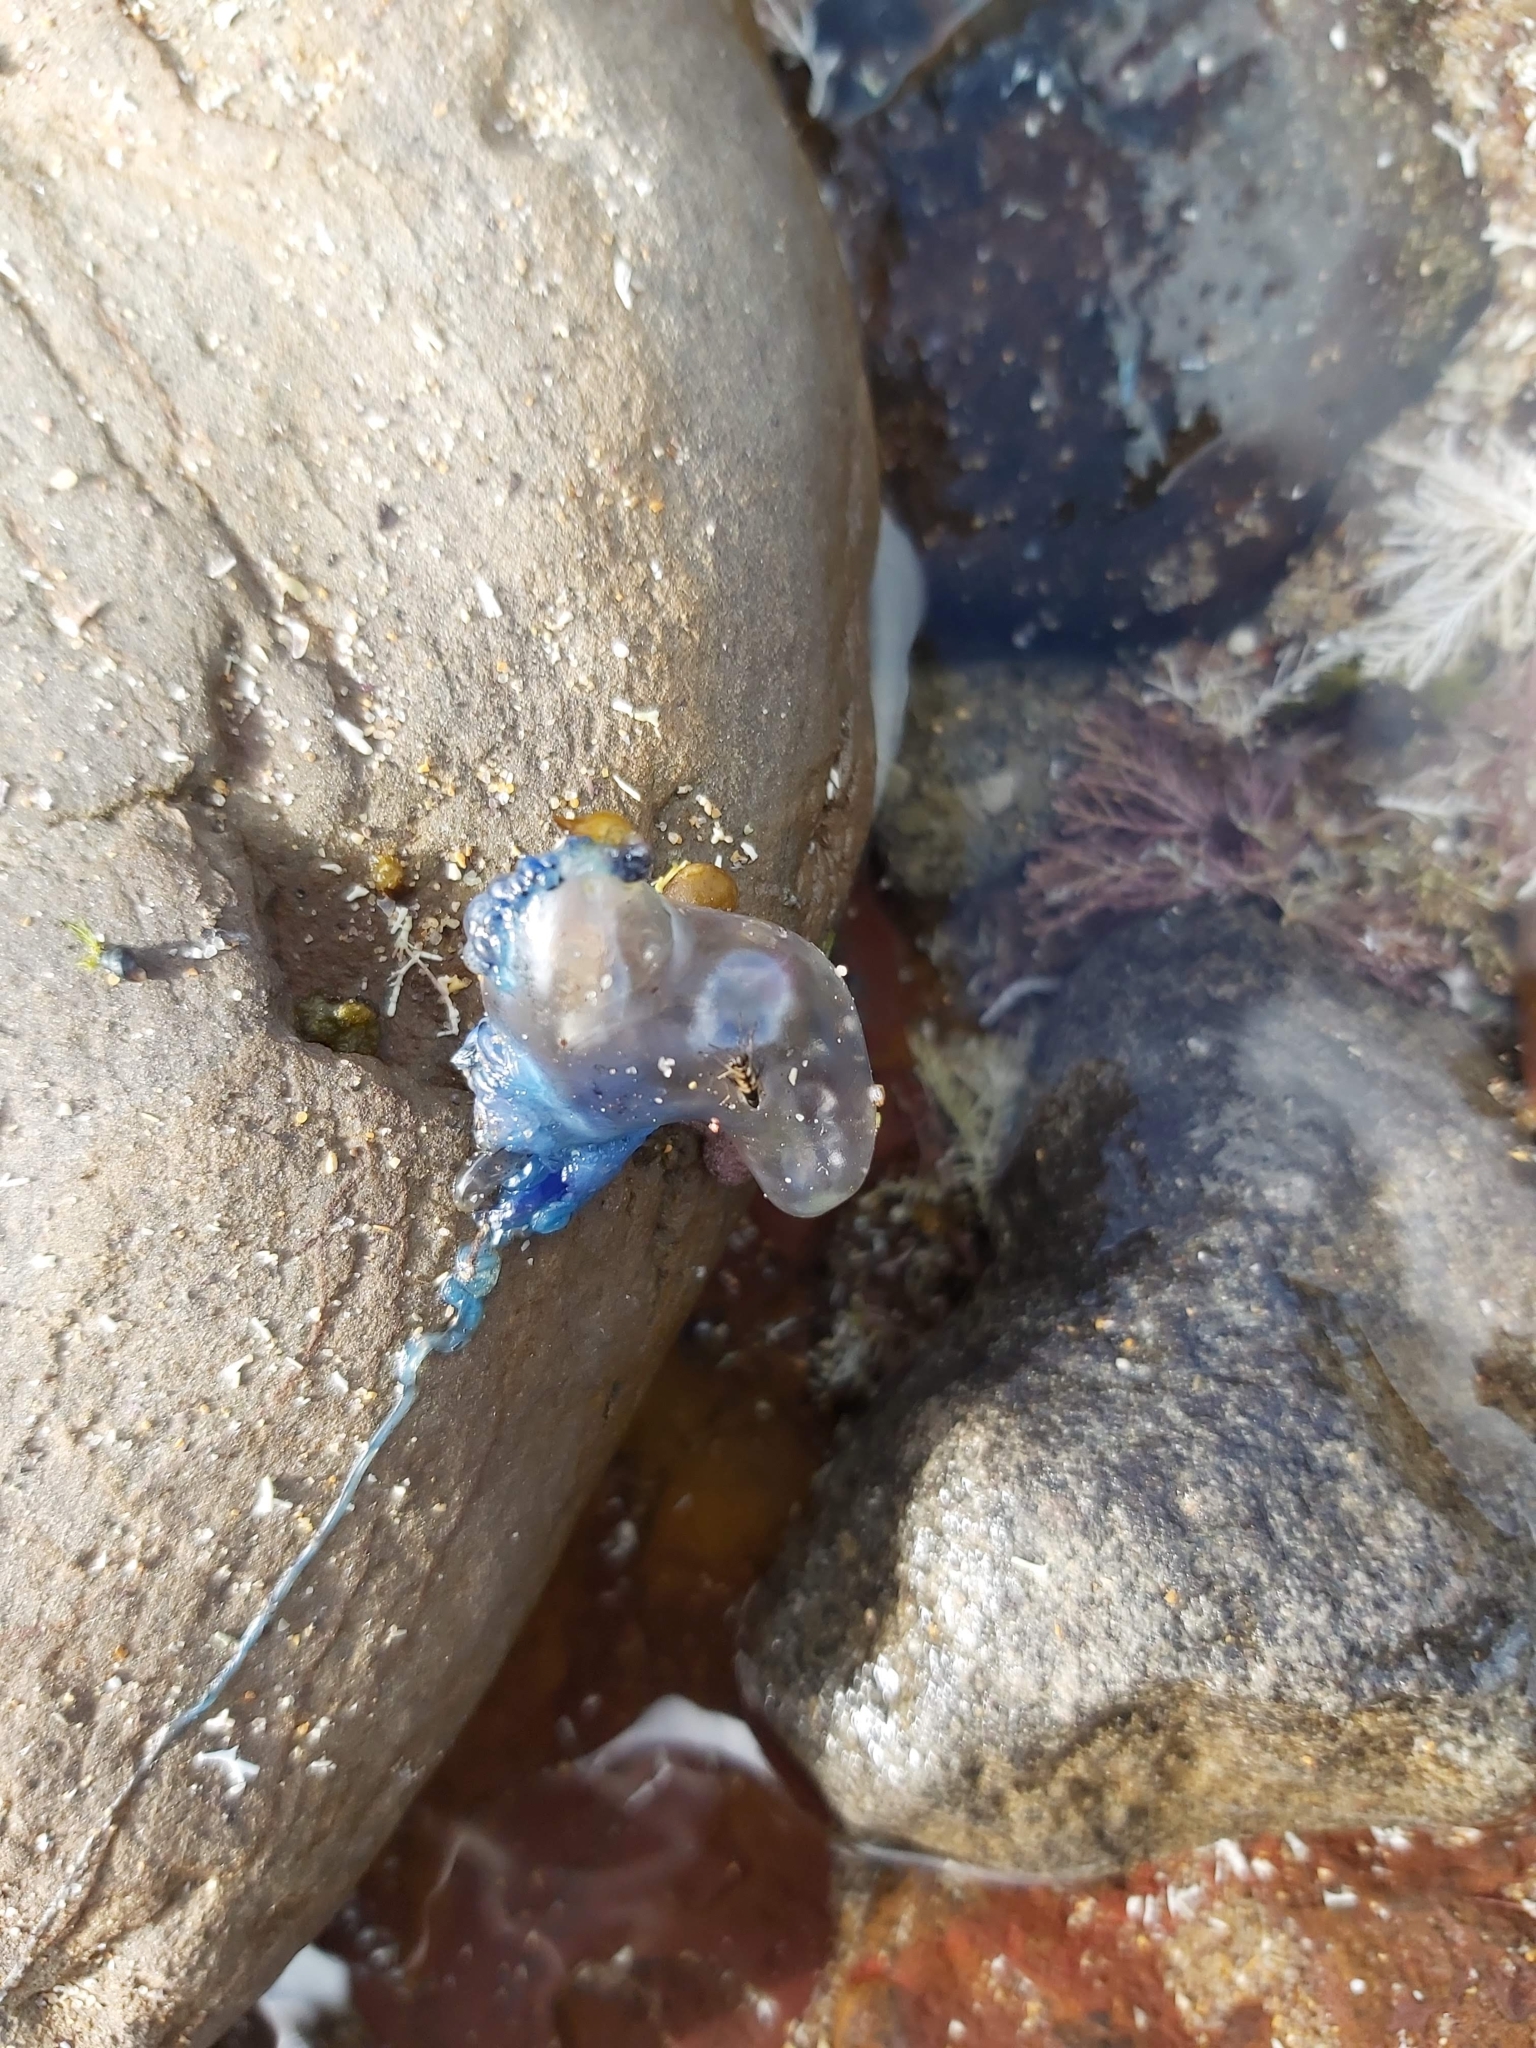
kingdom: Animalia
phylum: Cnidaria
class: Hydrozoa
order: Siphonophorae
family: Physaliidae
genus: Physalia
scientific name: Physalia physalis
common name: Portuguese man-of-war
